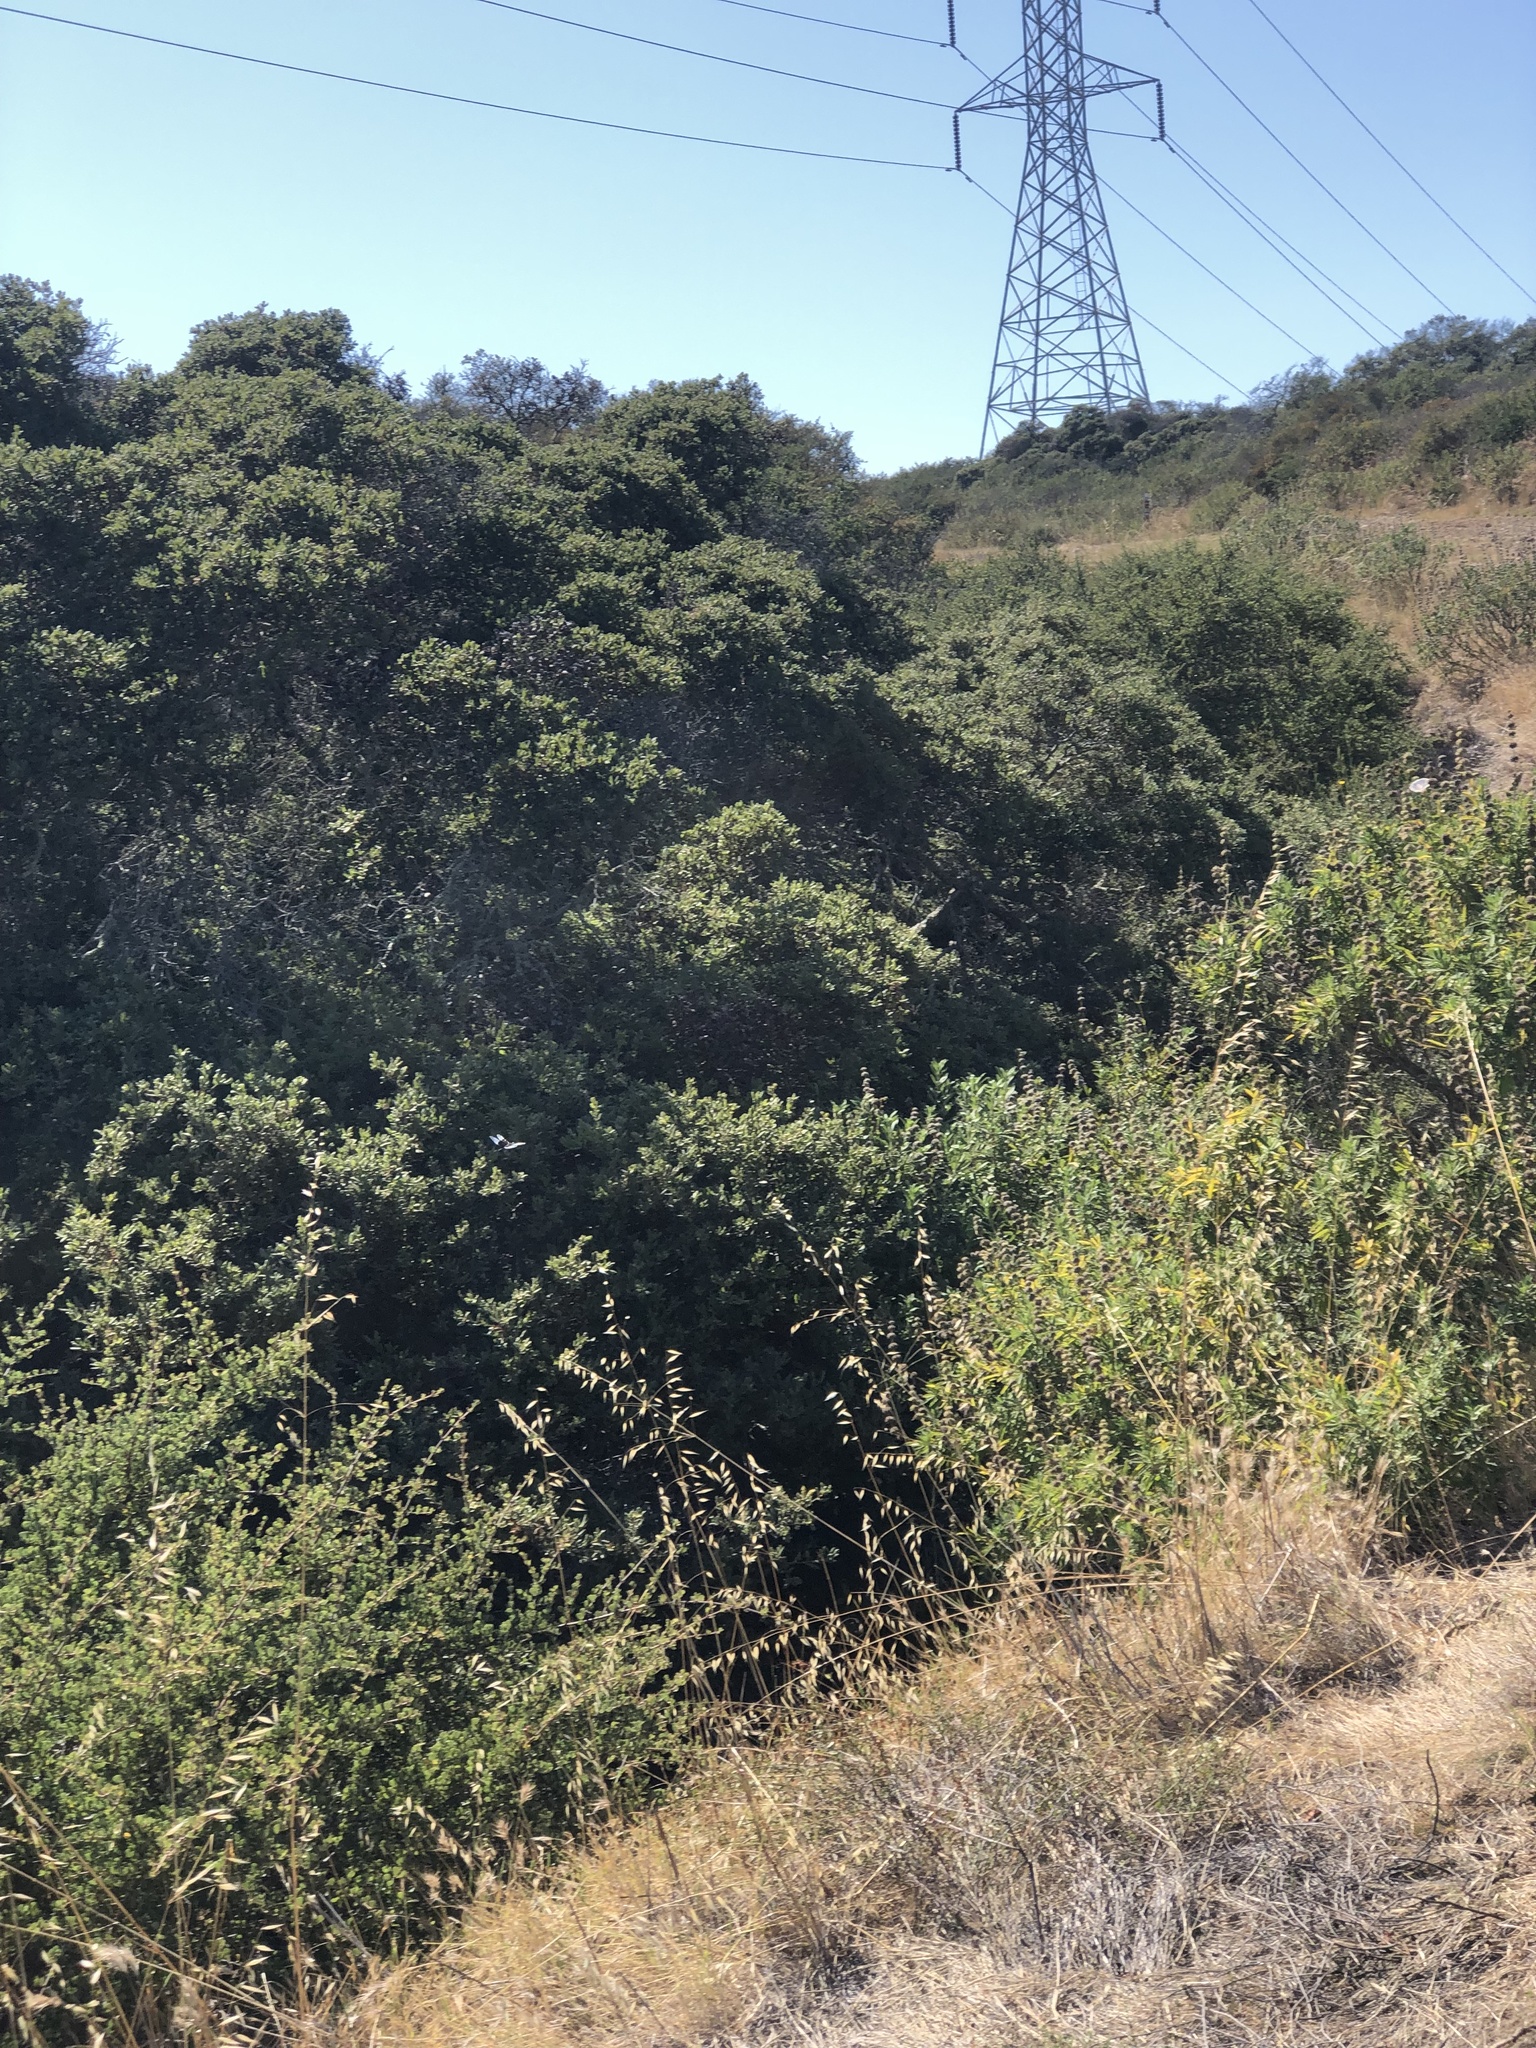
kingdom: Animalia
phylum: Arthropoda
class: Insecta
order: Odonata
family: Libellulidae
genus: Libellula
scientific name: Libellula luctuosa
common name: Widow skimmer
